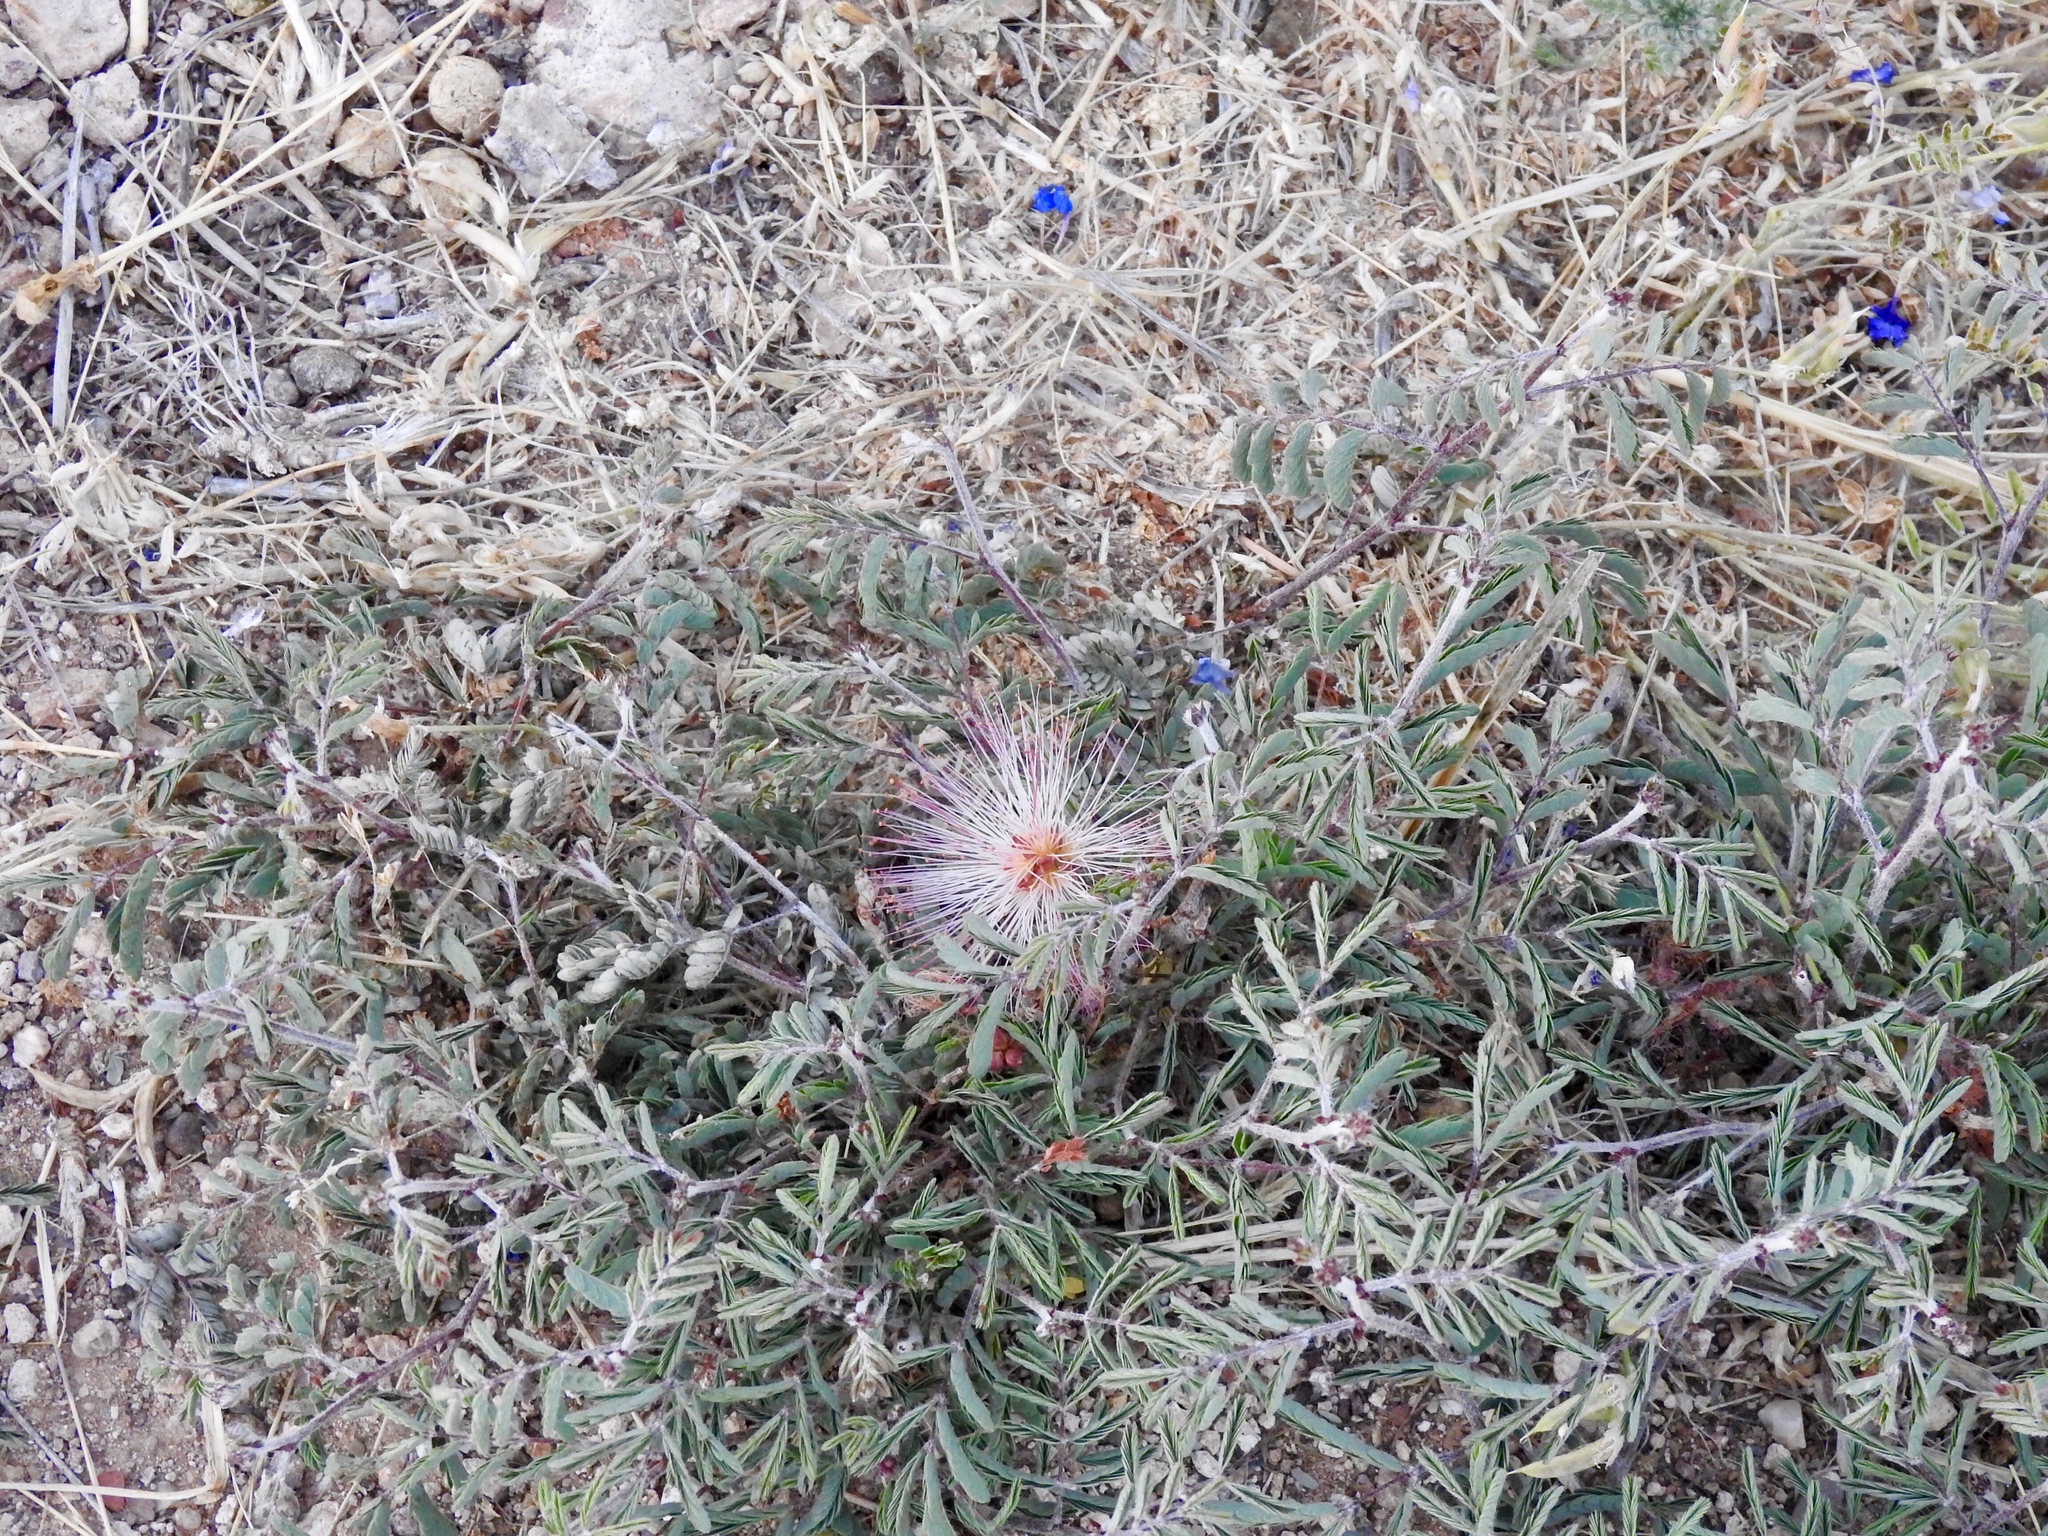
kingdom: Plantae
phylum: Tracheophyta
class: Magnoliopsida
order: Fabales
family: Fabaceae
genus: Calliandra
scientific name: Calliandra eriophylla
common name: Fairy-duster
